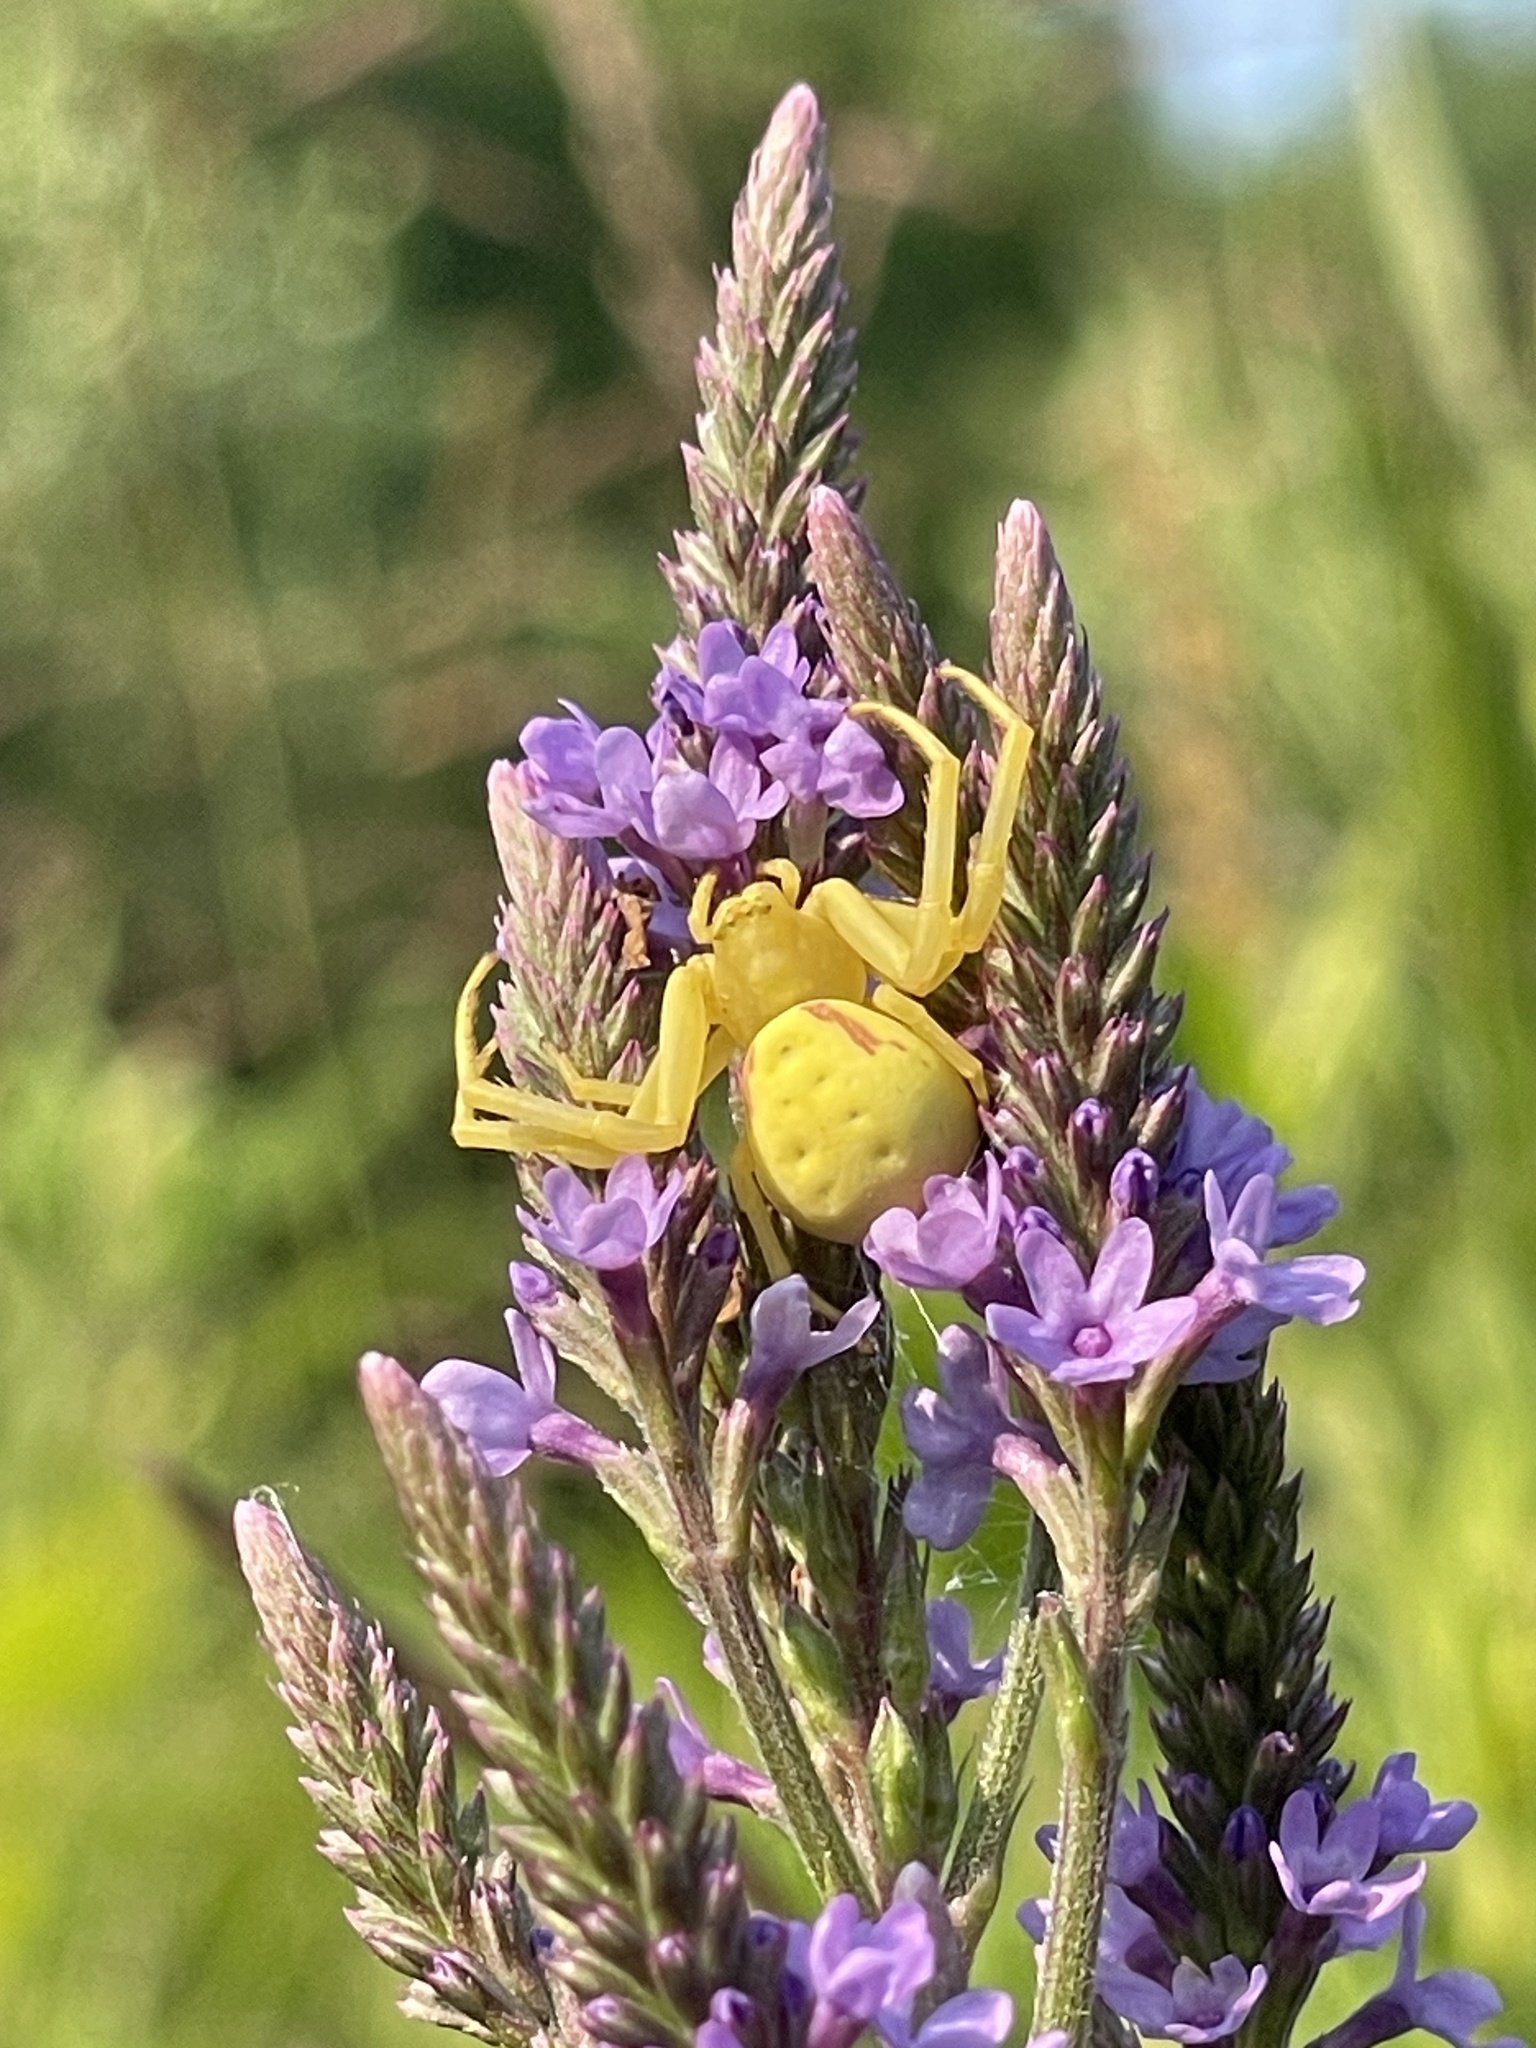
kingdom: Animalia
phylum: Arthropoda
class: Arachnida
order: Araneae
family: Thomisidae
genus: Misumena
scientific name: Misumena vatia
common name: Goldenrod crab spider
